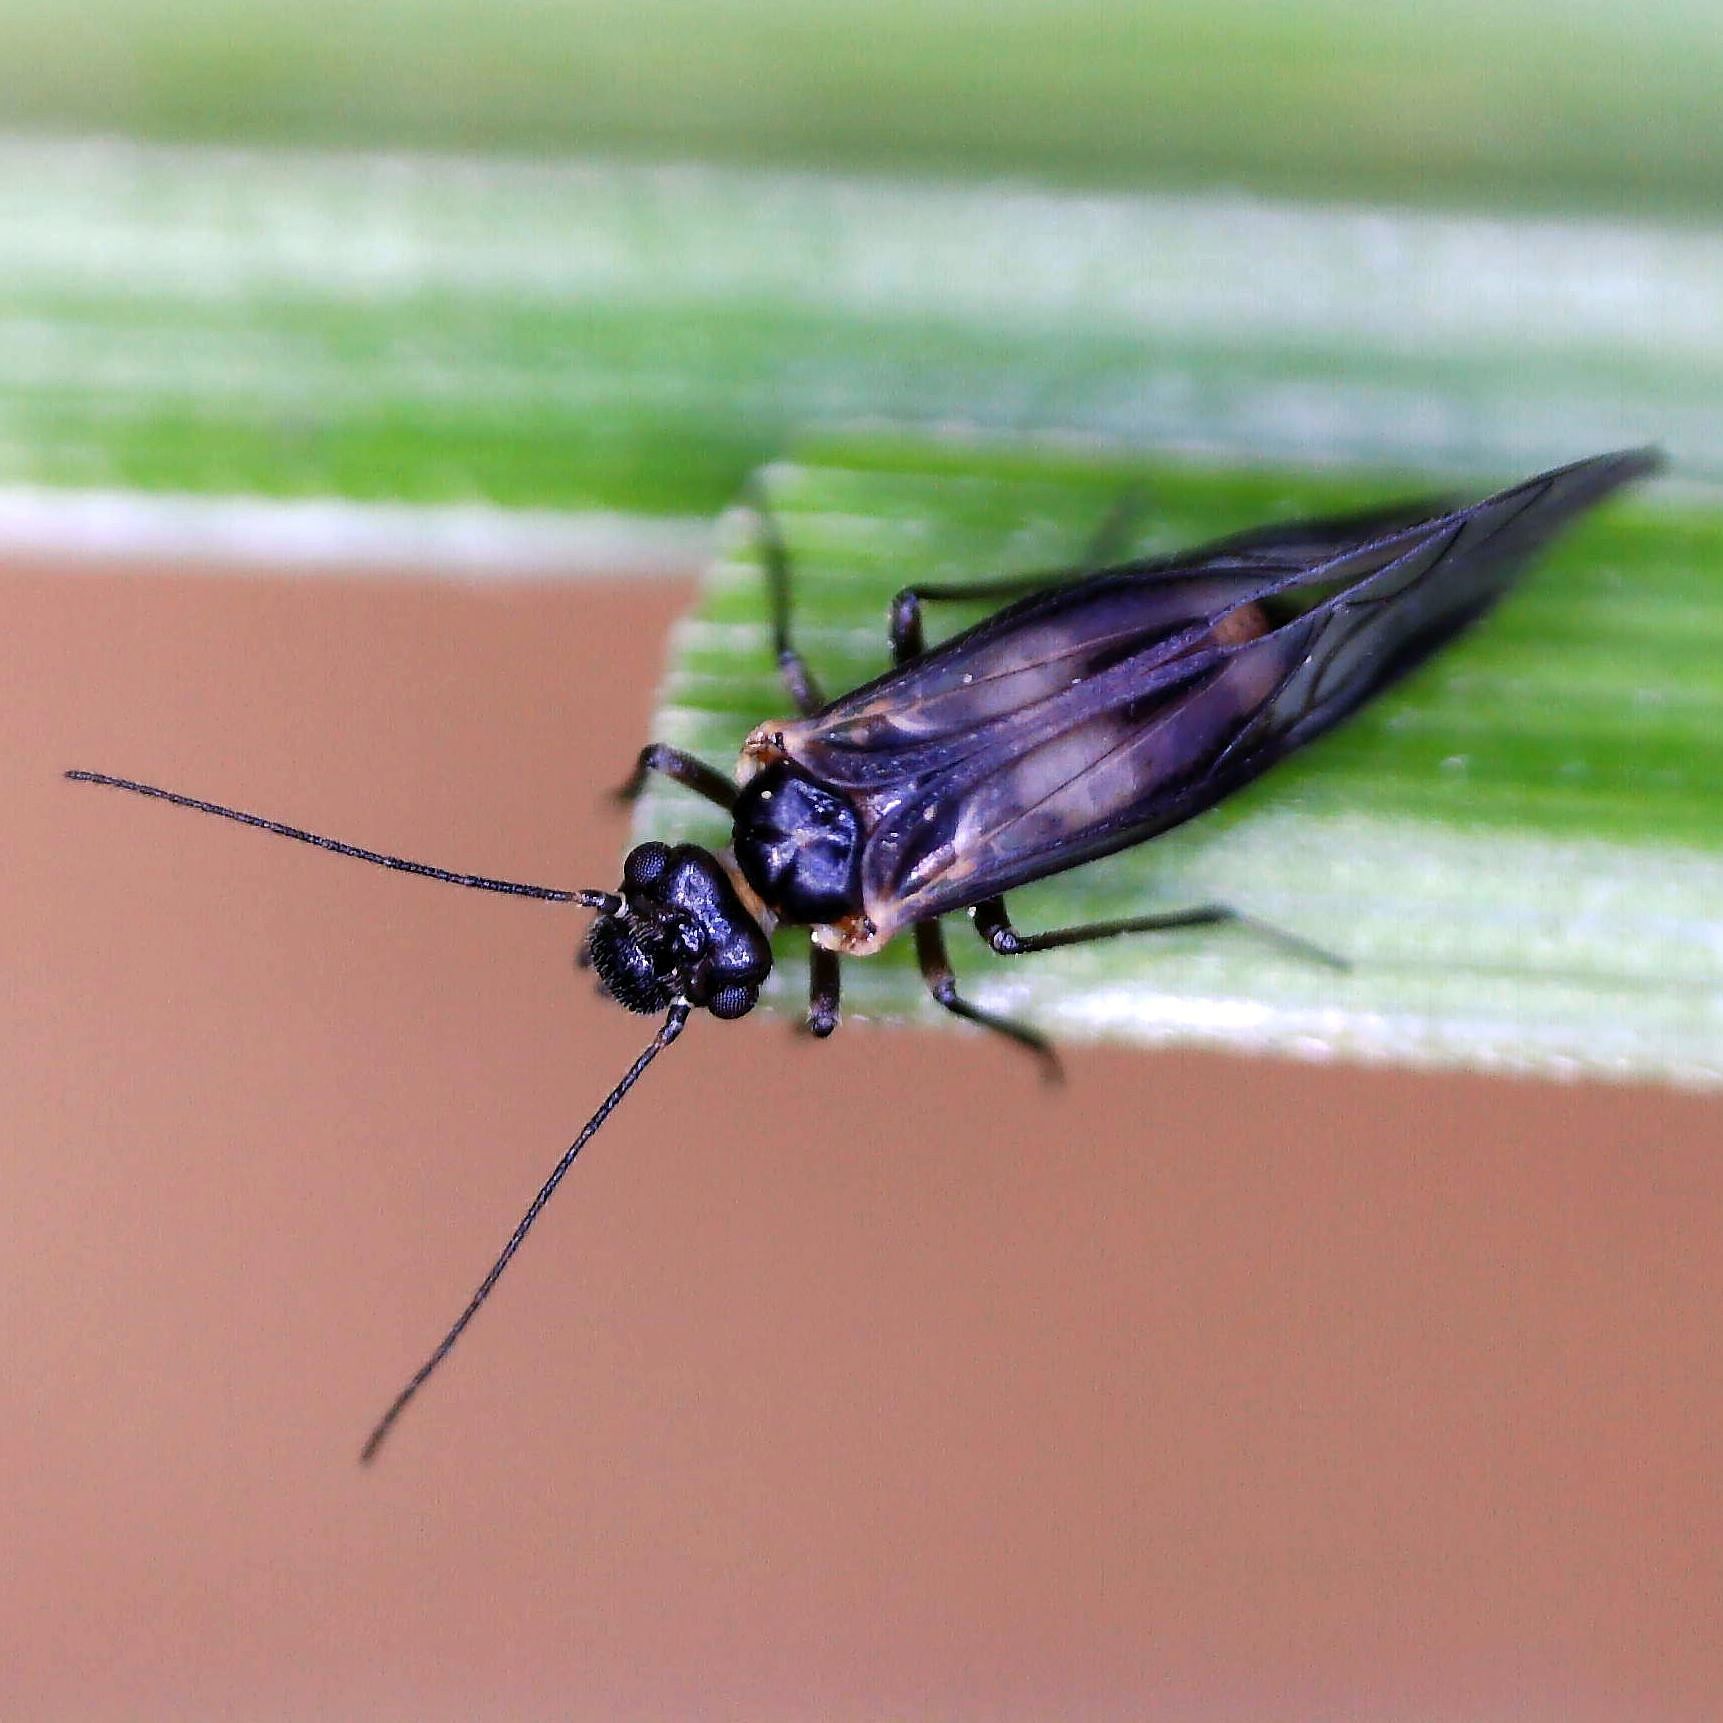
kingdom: Animalia
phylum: Arthropoda
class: Insecta
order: Psocodea
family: Elipsocidae
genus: Elipsocus
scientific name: Elipsocus hyalinus
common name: Bark lice
